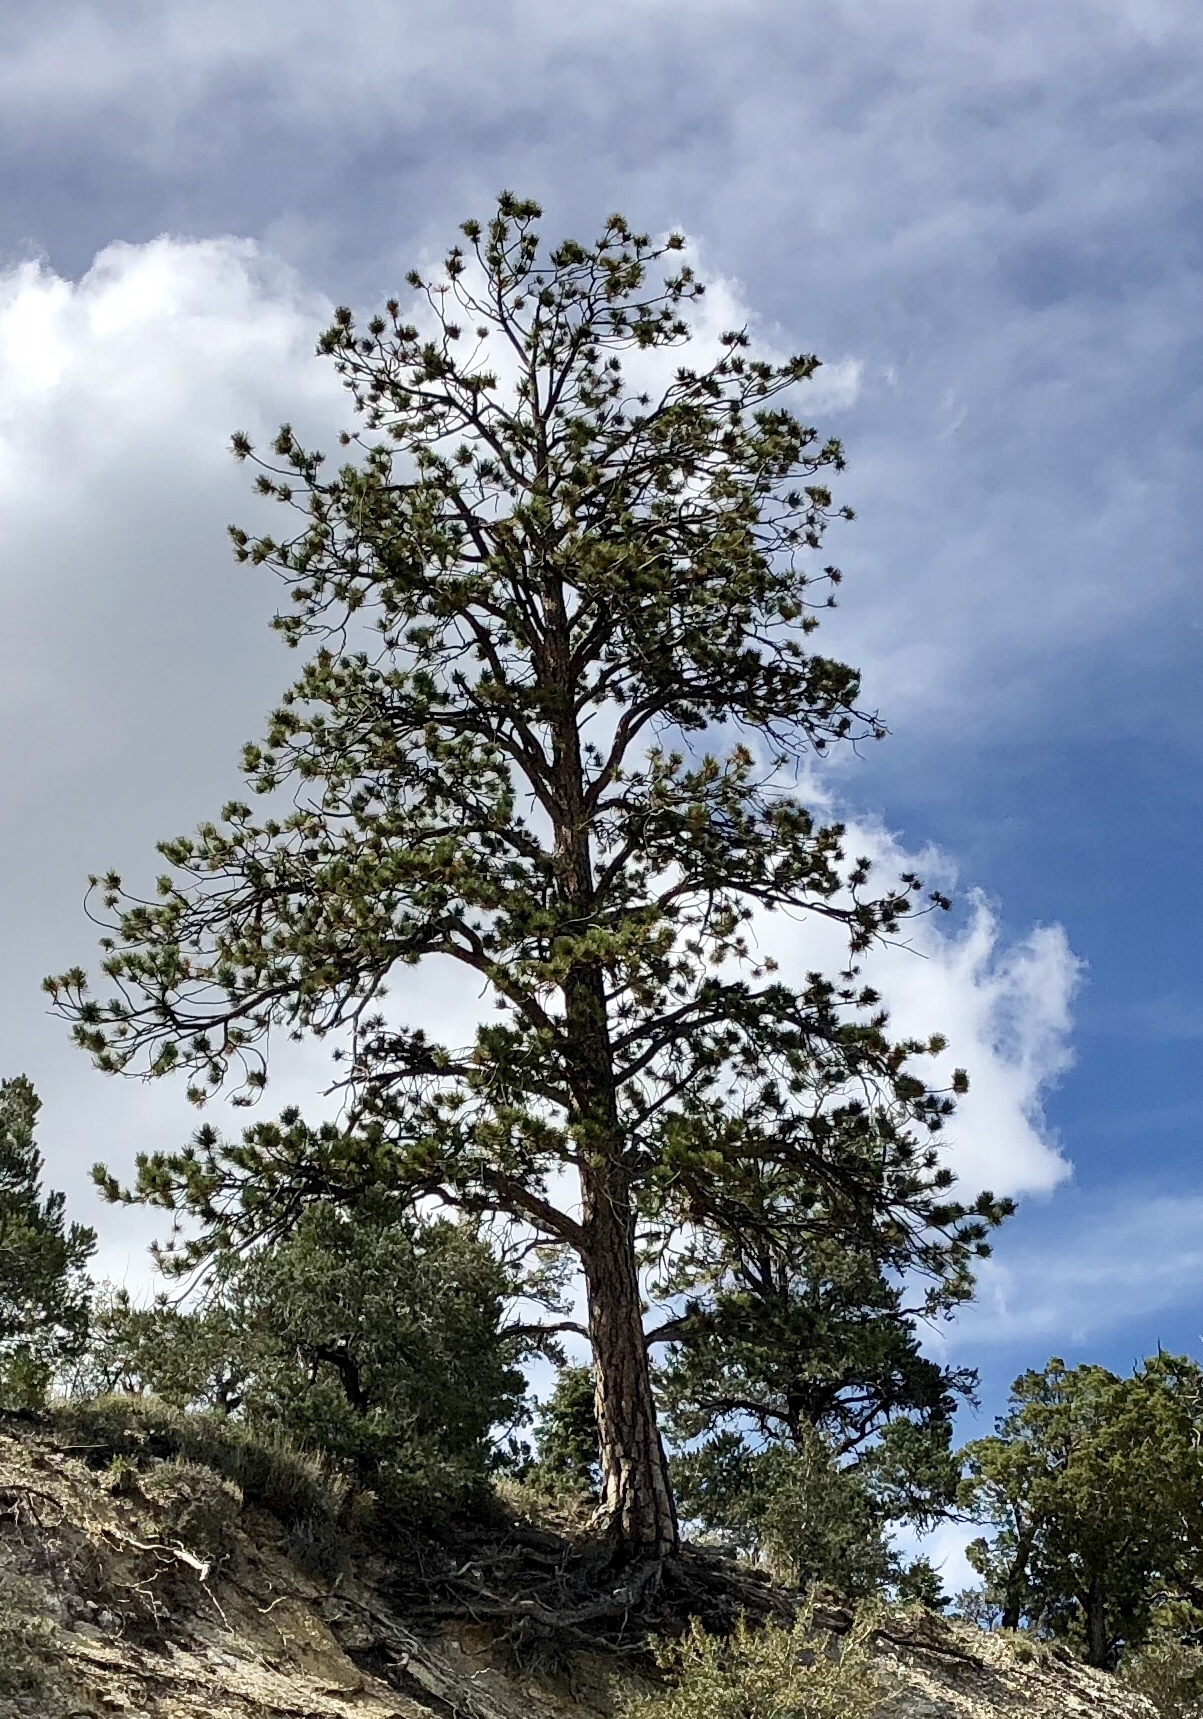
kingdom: Plantae
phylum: Tracheophyta
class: Pinopsida
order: Pinales
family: Pinaceae
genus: Pinus
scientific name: Pinus ponderosa
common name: Western yellow-pine
